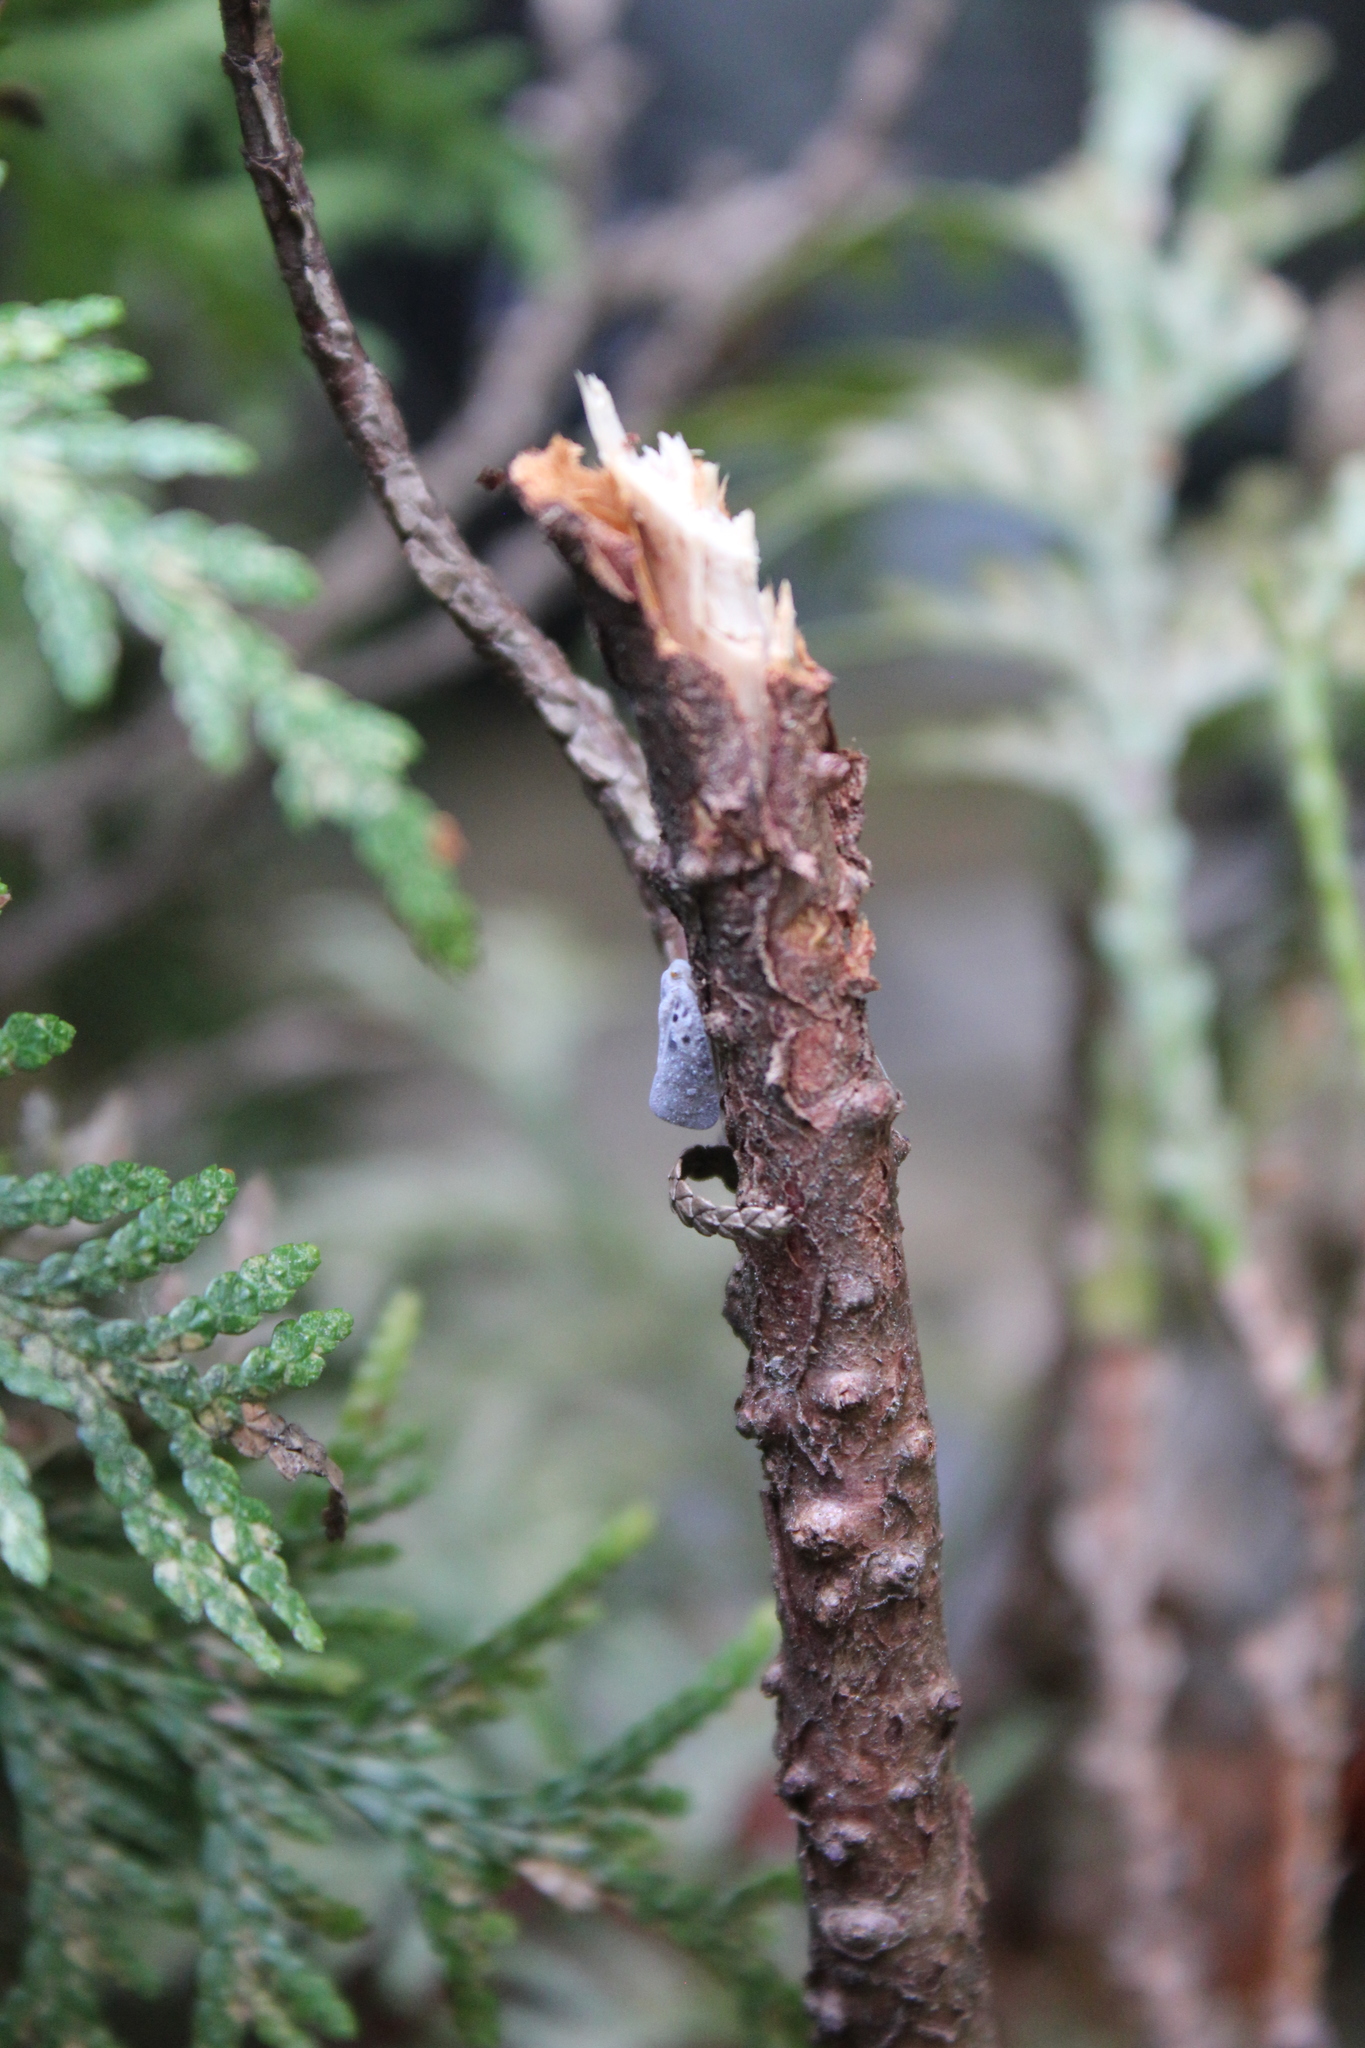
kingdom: Animalia
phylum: Arthropoda
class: Insecta
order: Hemiptera
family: Flatidae
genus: Metcalfa
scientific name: Metcalfa pruinosa
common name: Citrus flatid planthopper
